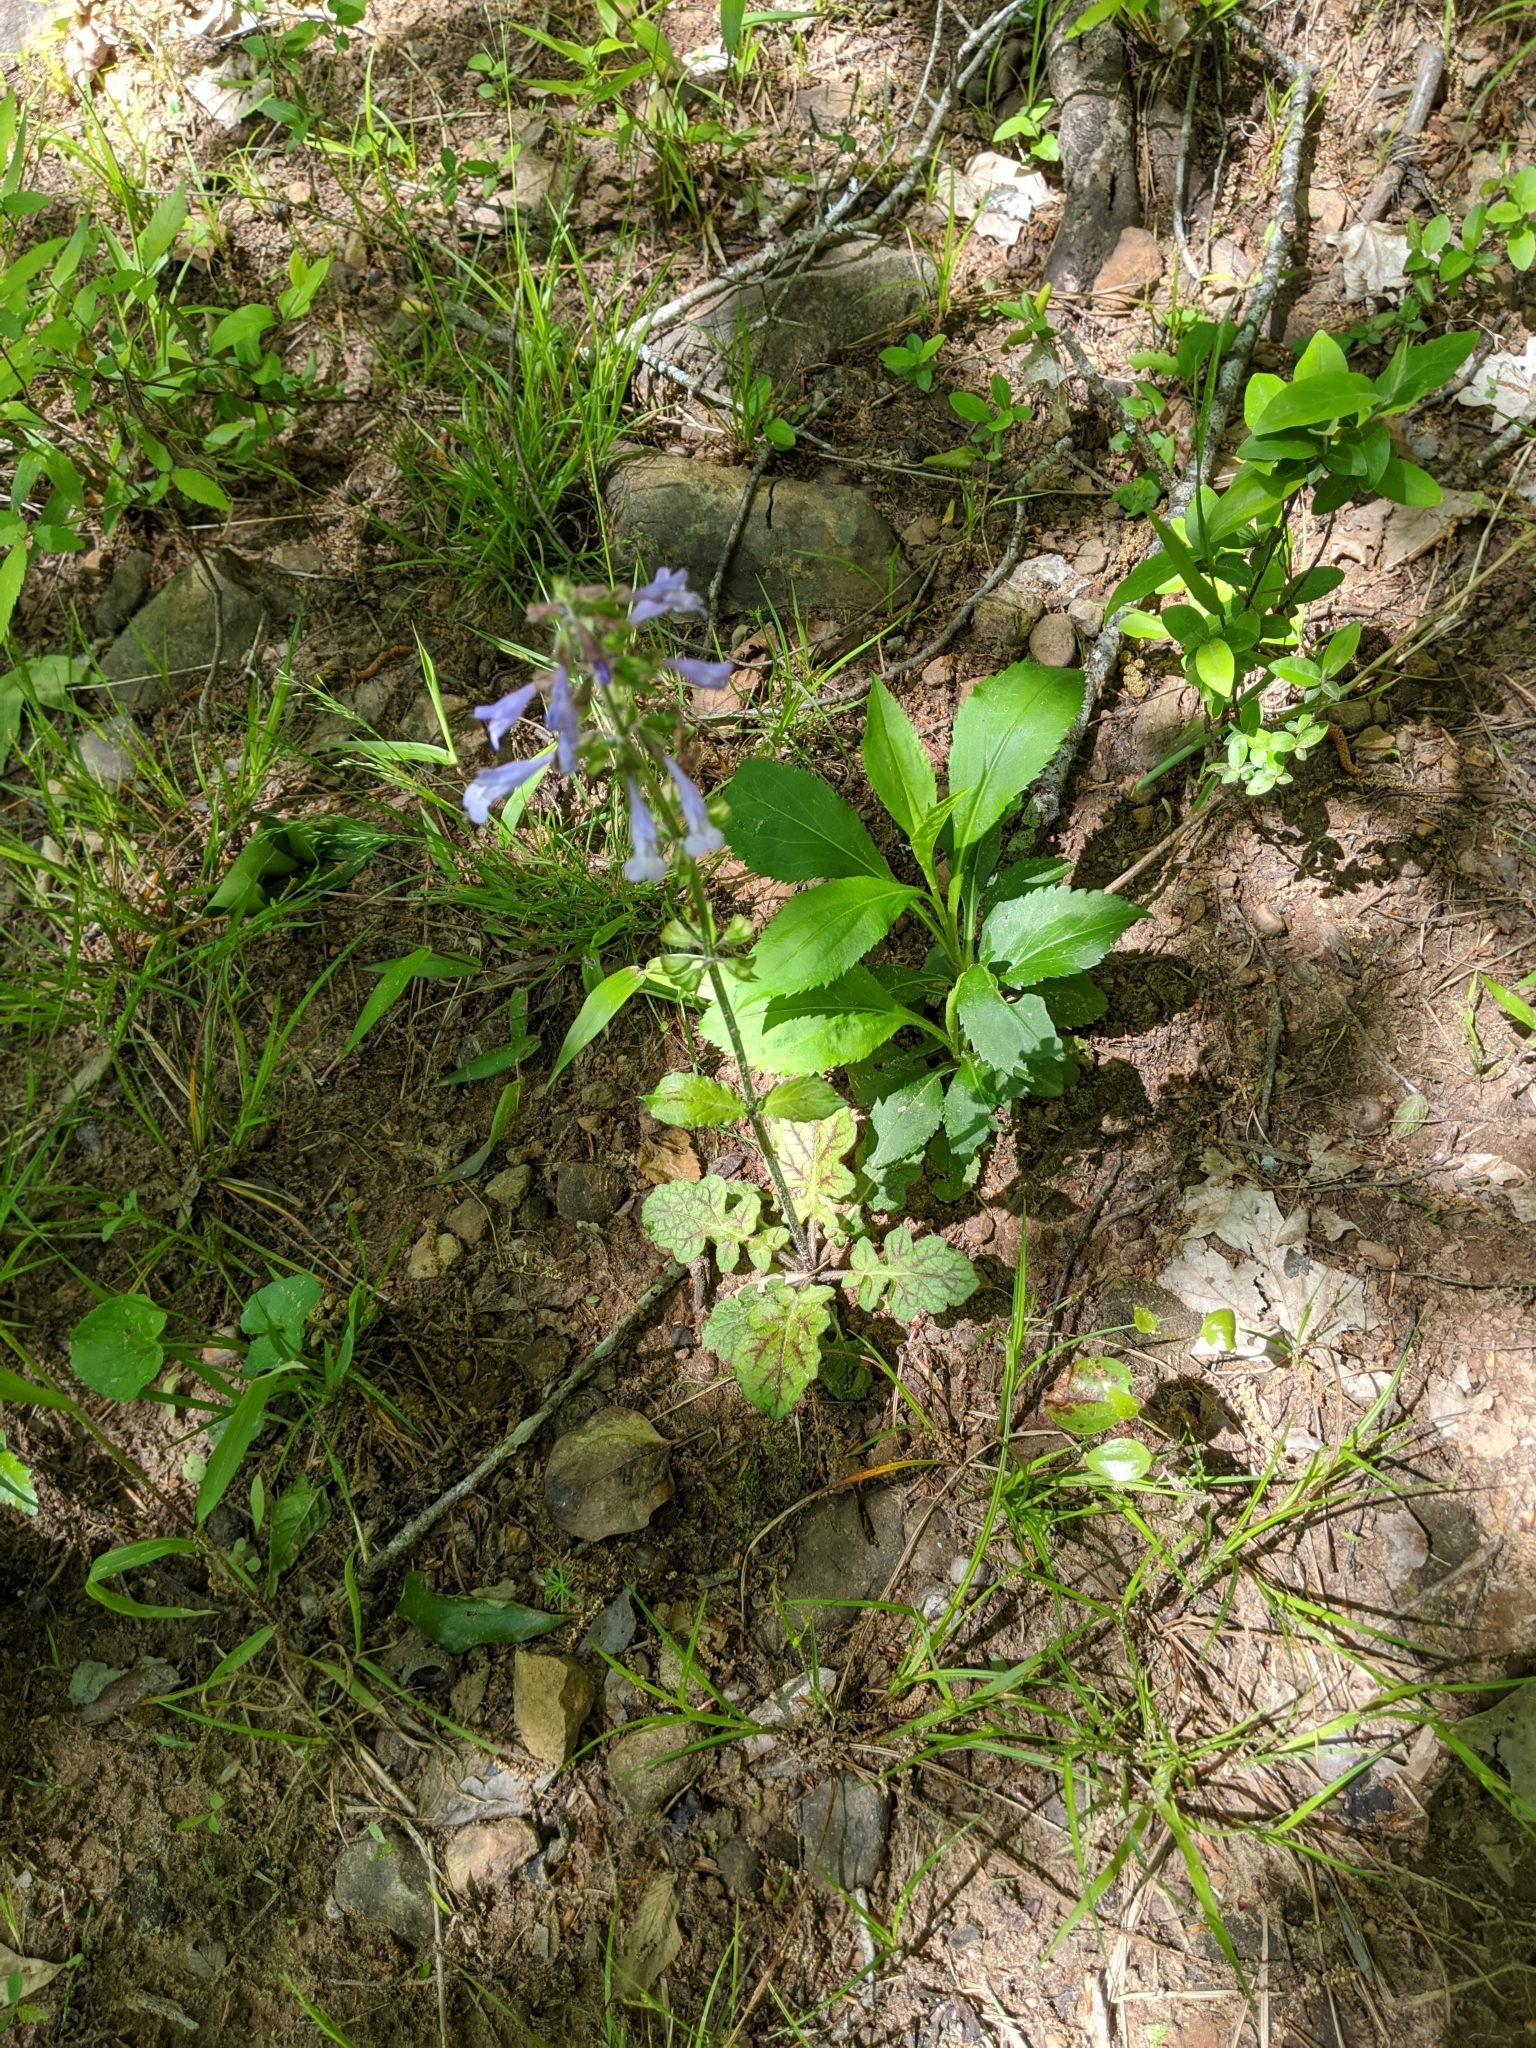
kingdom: Plantae
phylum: Tracheophyta
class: Magnoliopsida
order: Lamiales
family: Lamiaceae
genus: Salvia
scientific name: Salvia lyrata
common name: Cancerweed
